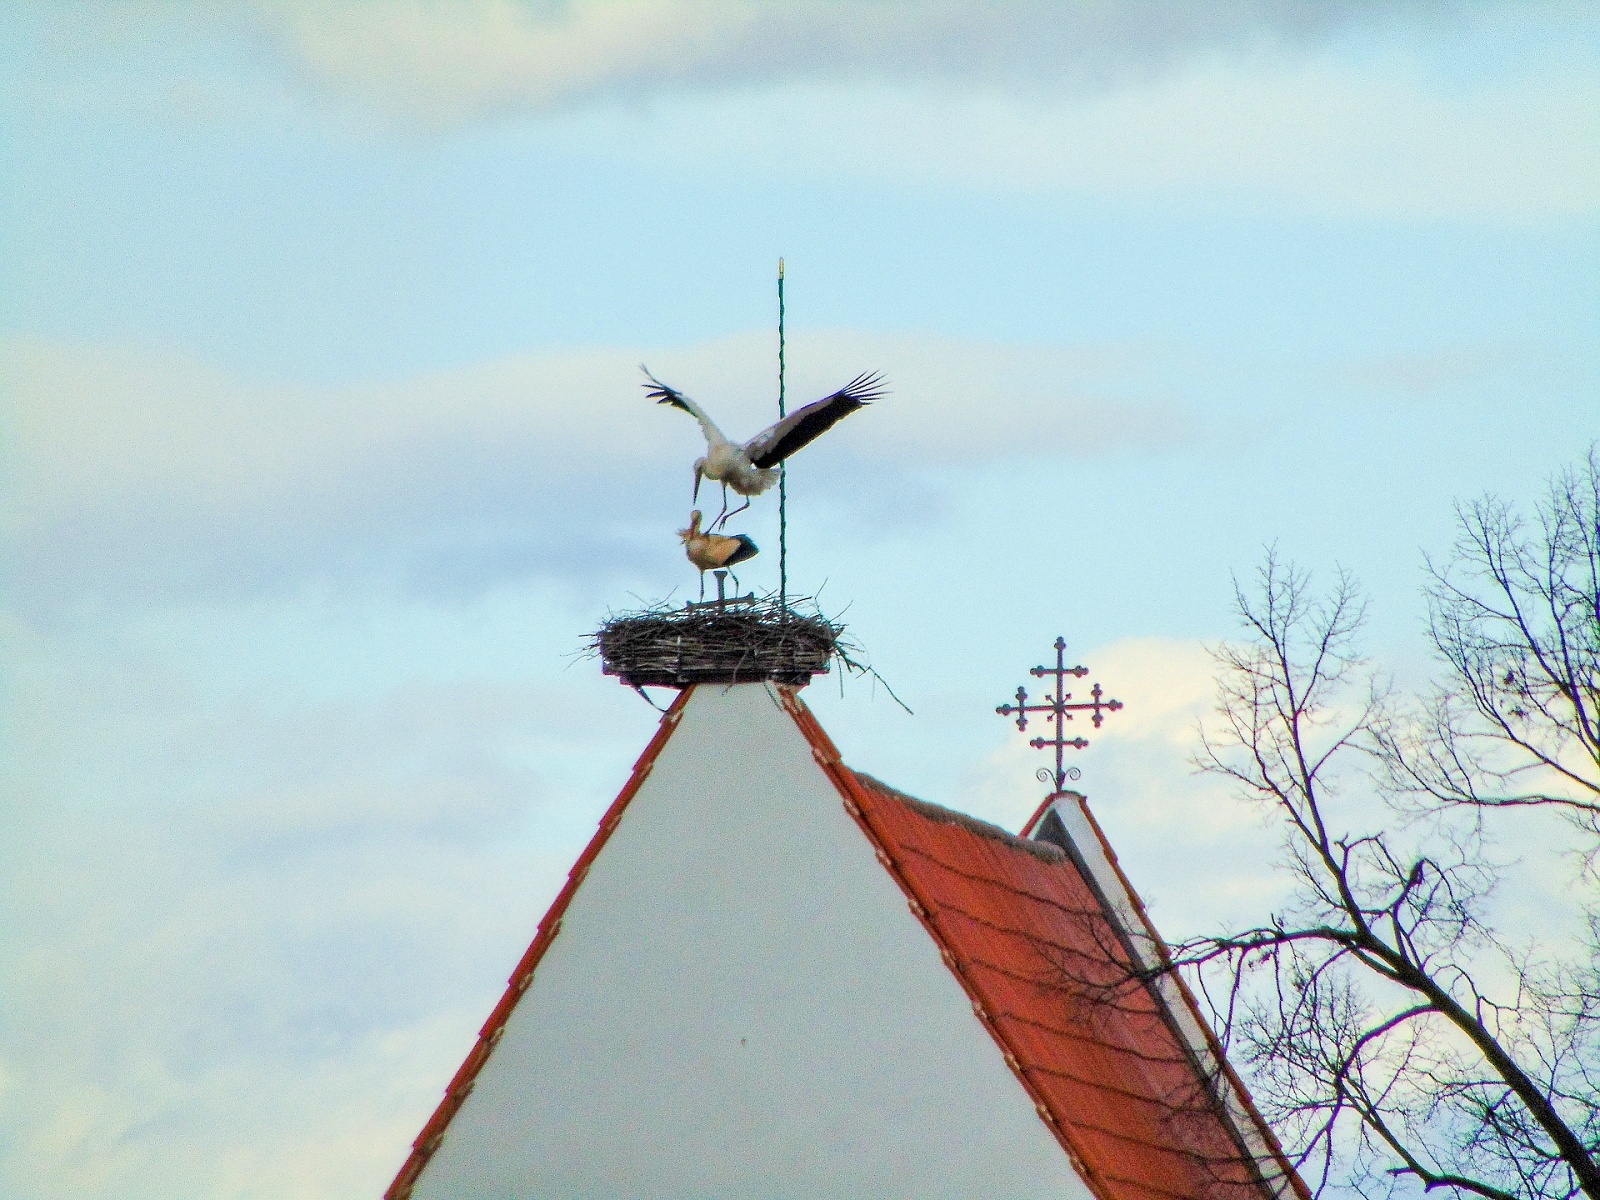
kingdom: Animalia
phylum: Chordata
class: Aves
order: Ciconiiformes
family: Ciconiidae
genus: Ciconia
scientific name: Ciconia ciconia
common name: White stork
